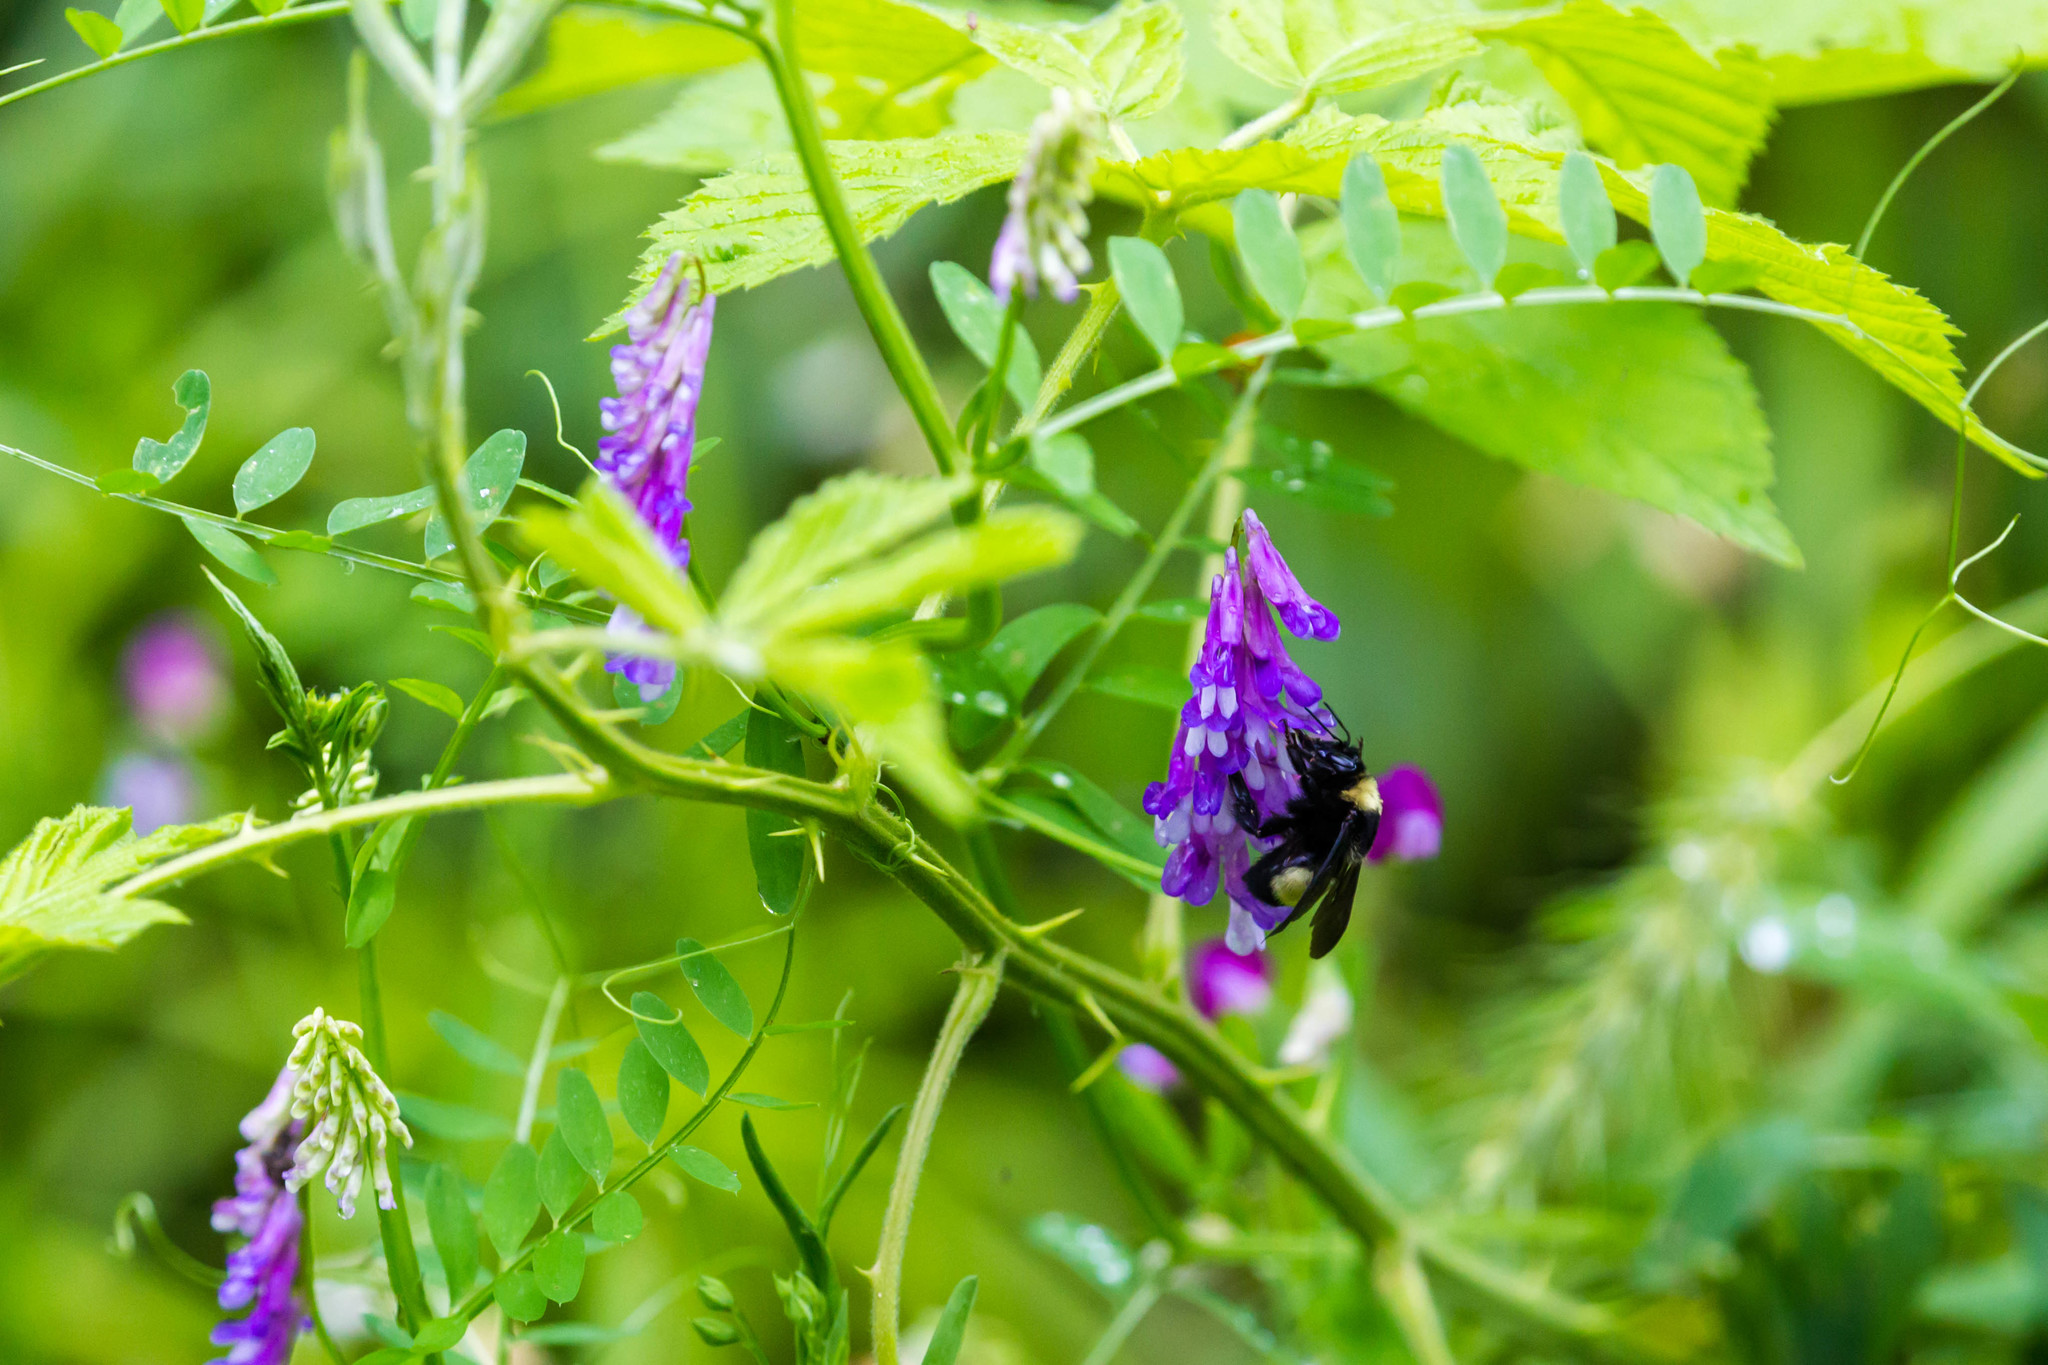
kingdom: Animalia
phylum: Arthropoda
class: Insecta
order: Hymenoptera
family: Apidae
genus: Bombus
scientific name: Bombus auricomus
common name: Black and gold bumble bee
